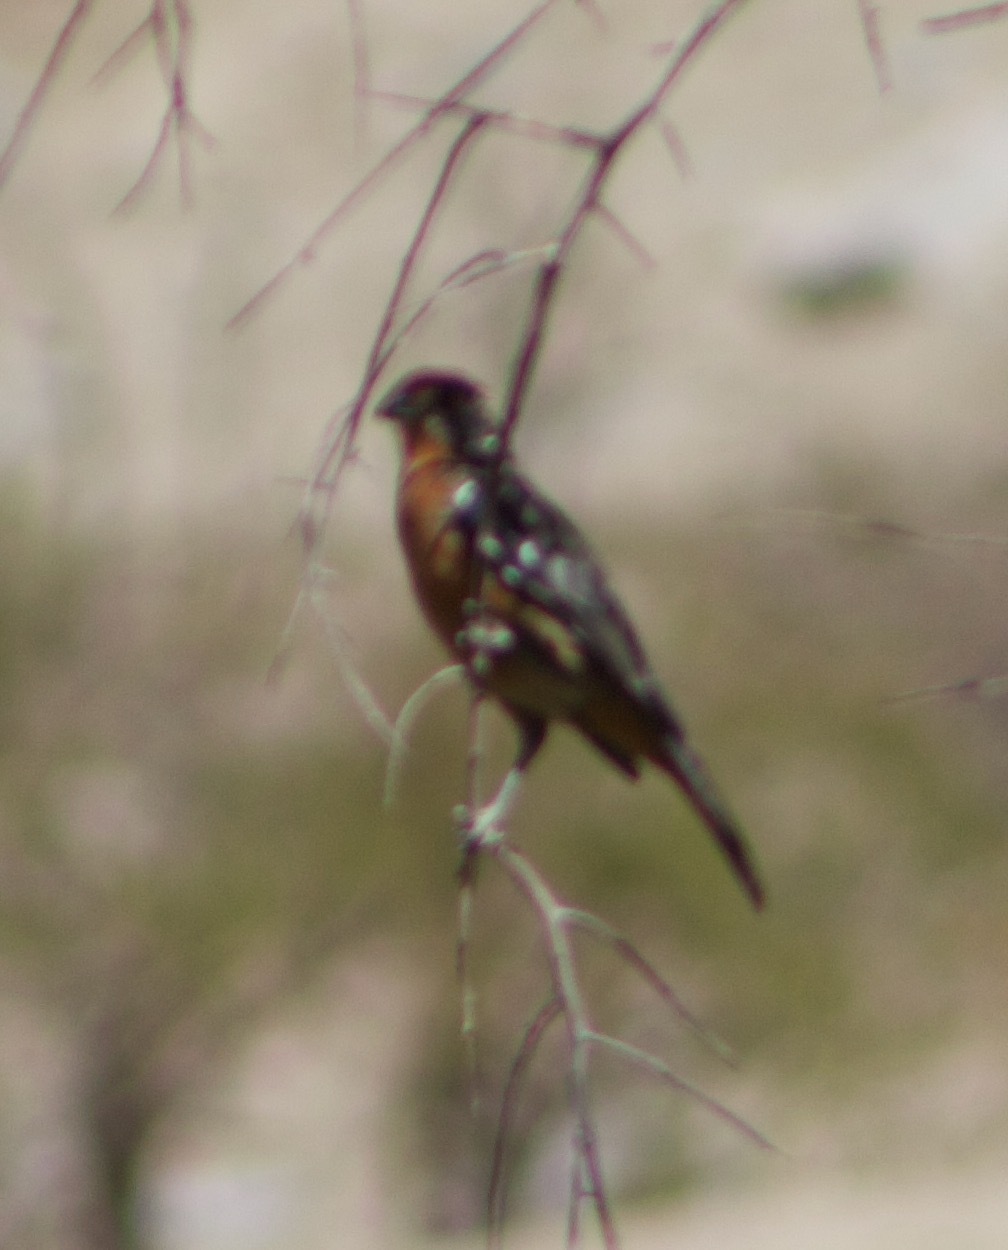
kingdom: Animalia
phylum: Chordata
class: Aves
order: Passeriformes
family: Cotingidae
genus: Phytotoma
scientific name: Phytotoma rara
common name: Rufous-tailed plantcutter
